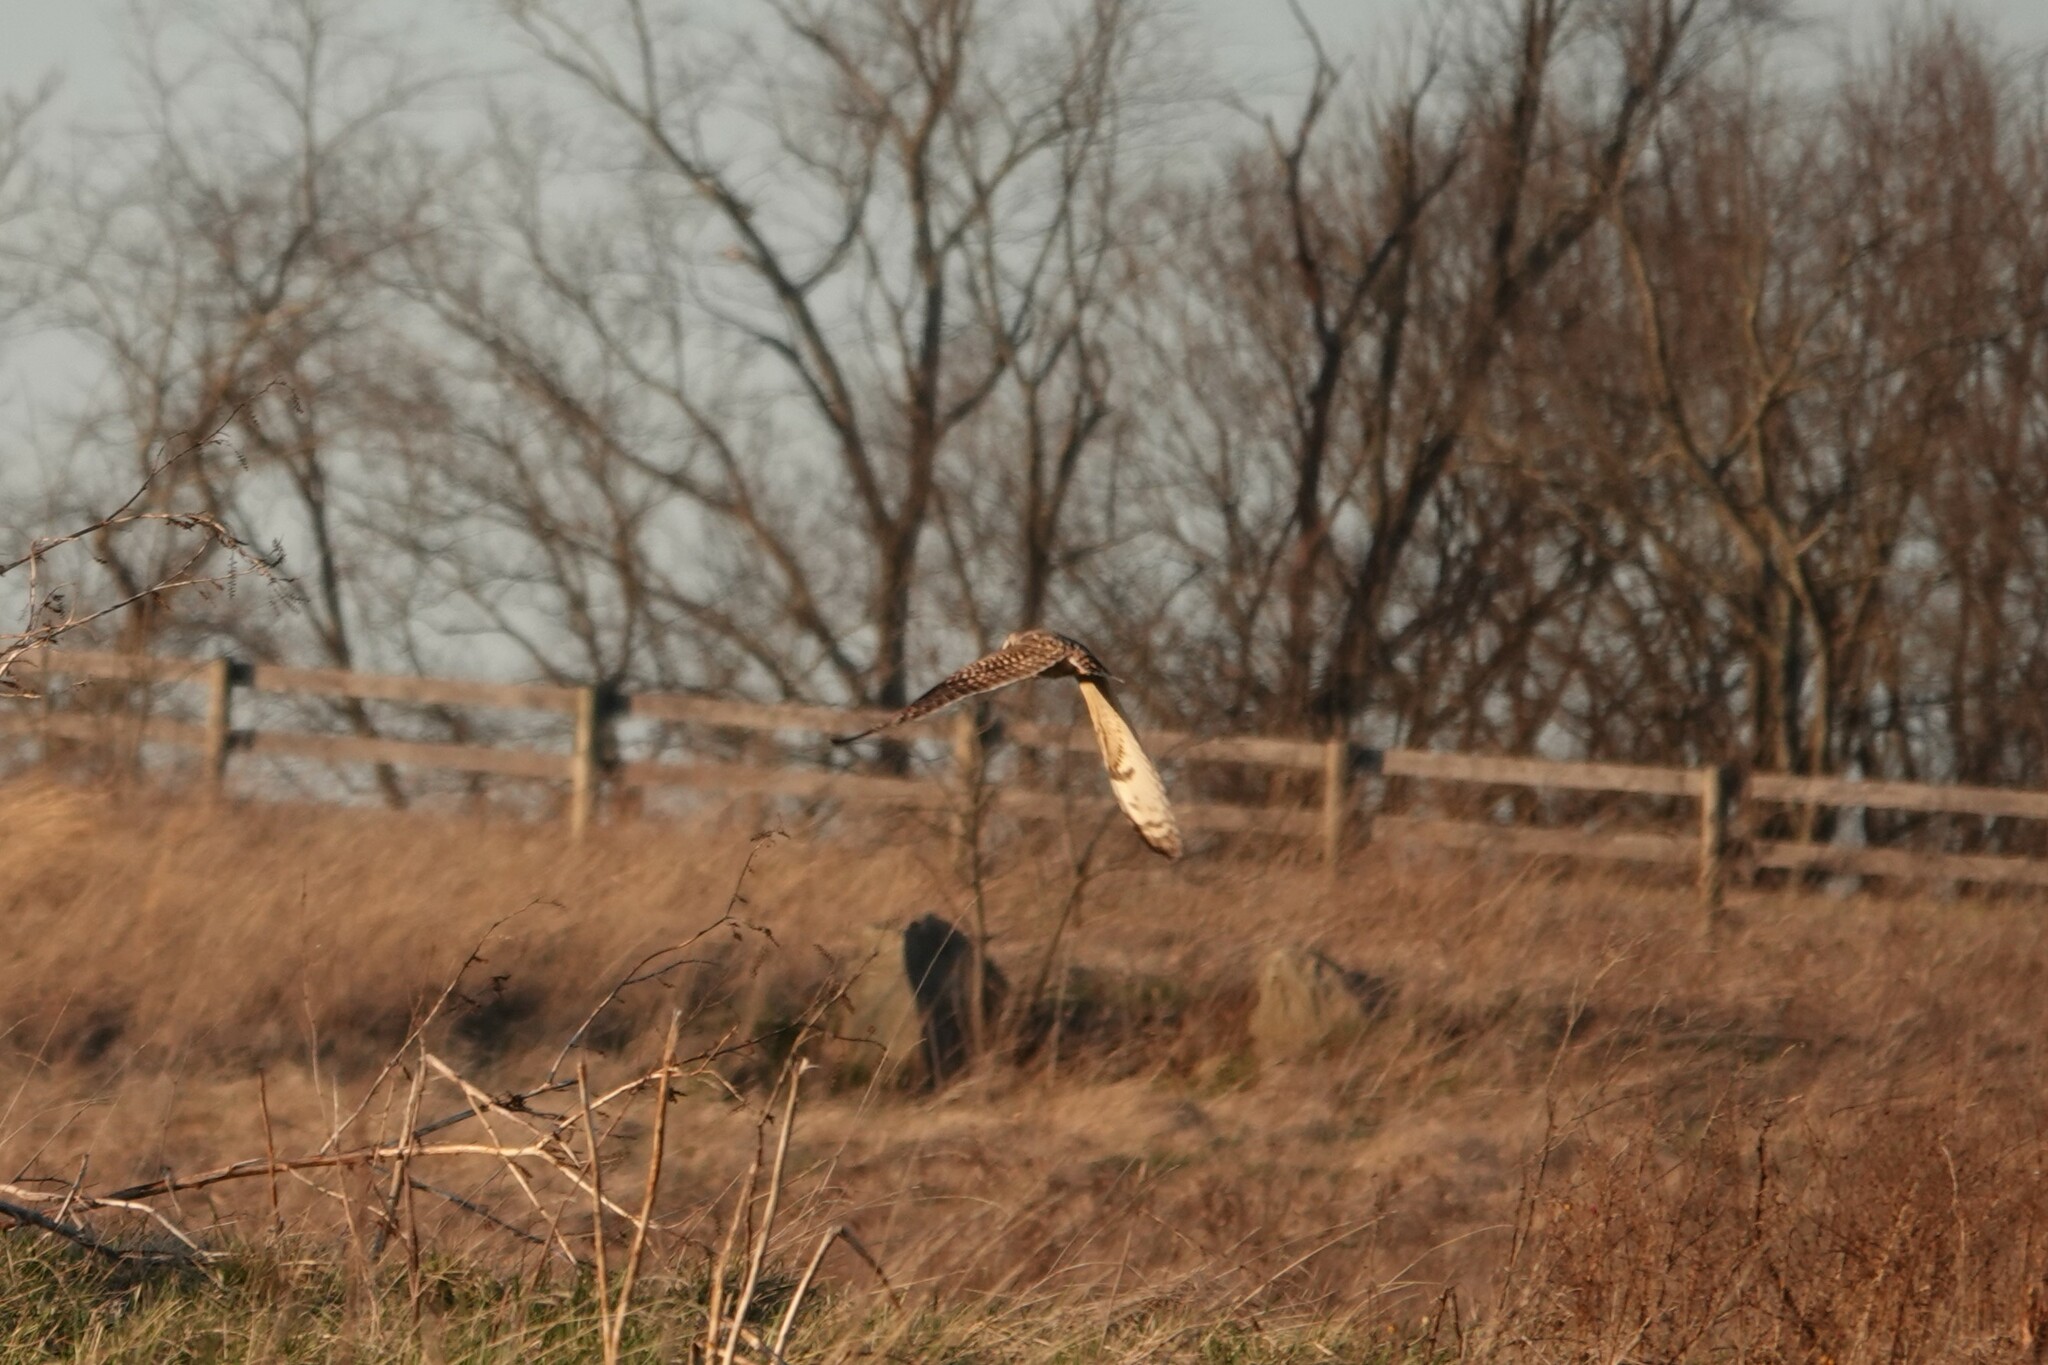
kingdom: Animalia
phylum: Chordata
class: Aves
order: Strigiformes
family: Strigidae
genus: Asio
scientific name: Asio flammeus
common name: Short-eared owl
